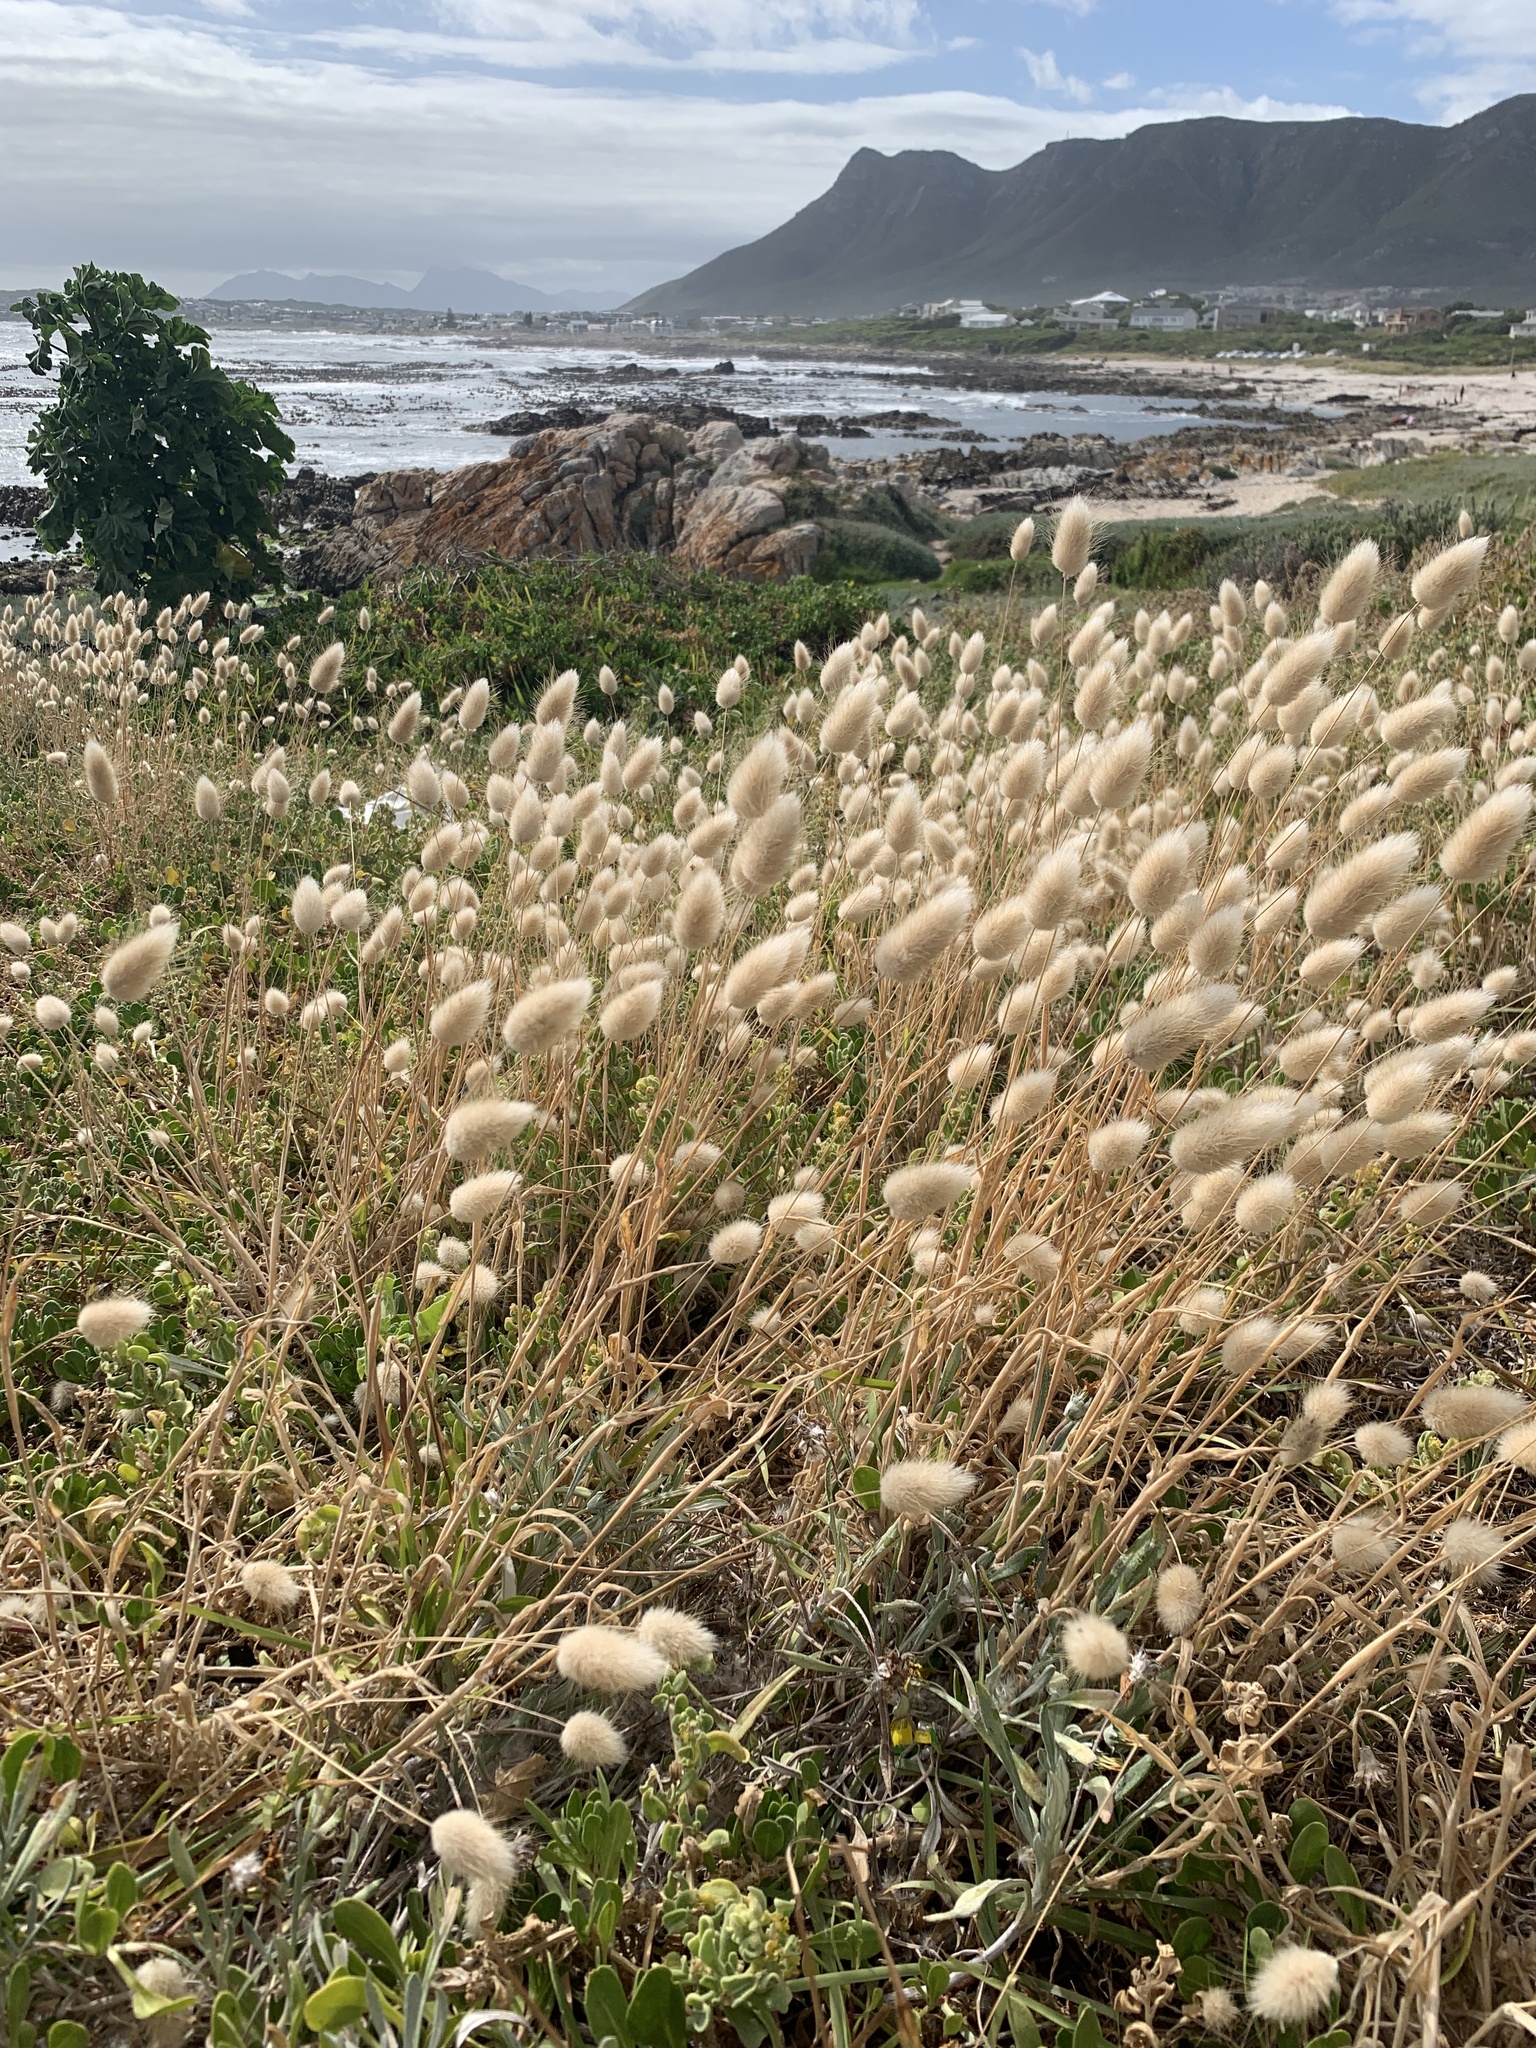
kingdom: Plantae
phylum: Tracheophyta
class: Liliopsida
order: Poales
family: Poaceae
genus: Lagurus
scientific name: Lagurus ovatus
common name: Hare's-tail
